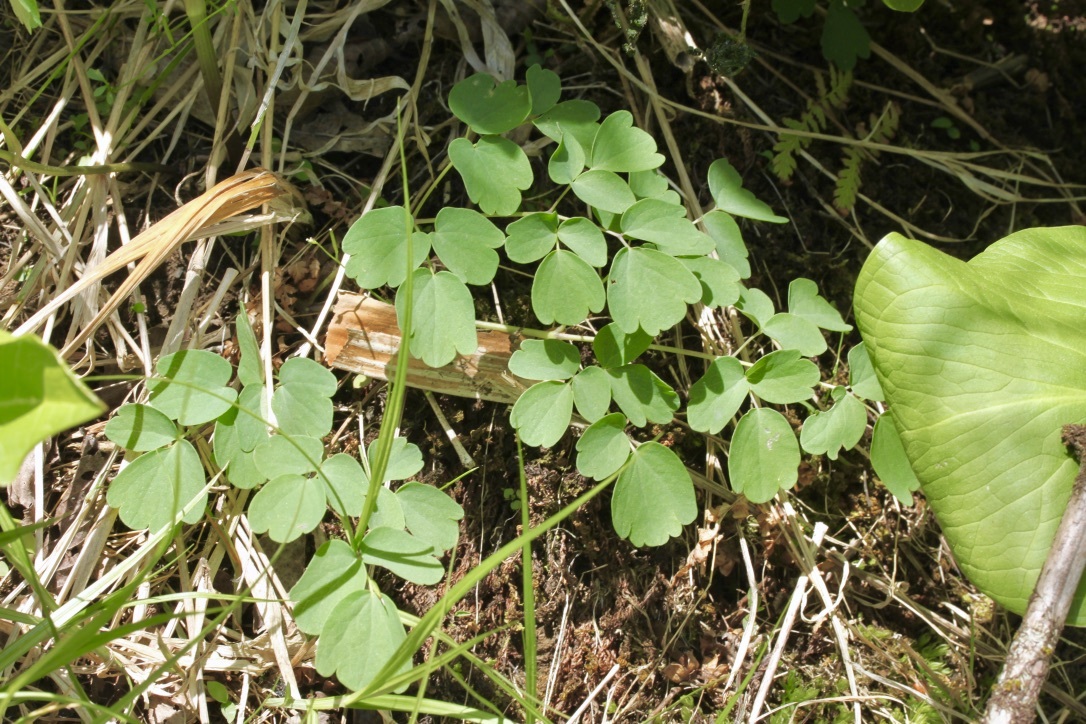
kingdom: Plantae
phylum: Tracheophyta
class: Magnoliopsida
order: Ranunculales
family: Ranunculaceae
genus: Thalictrum
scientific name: Thalictrum pubescens
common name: King-of-the-meadow
